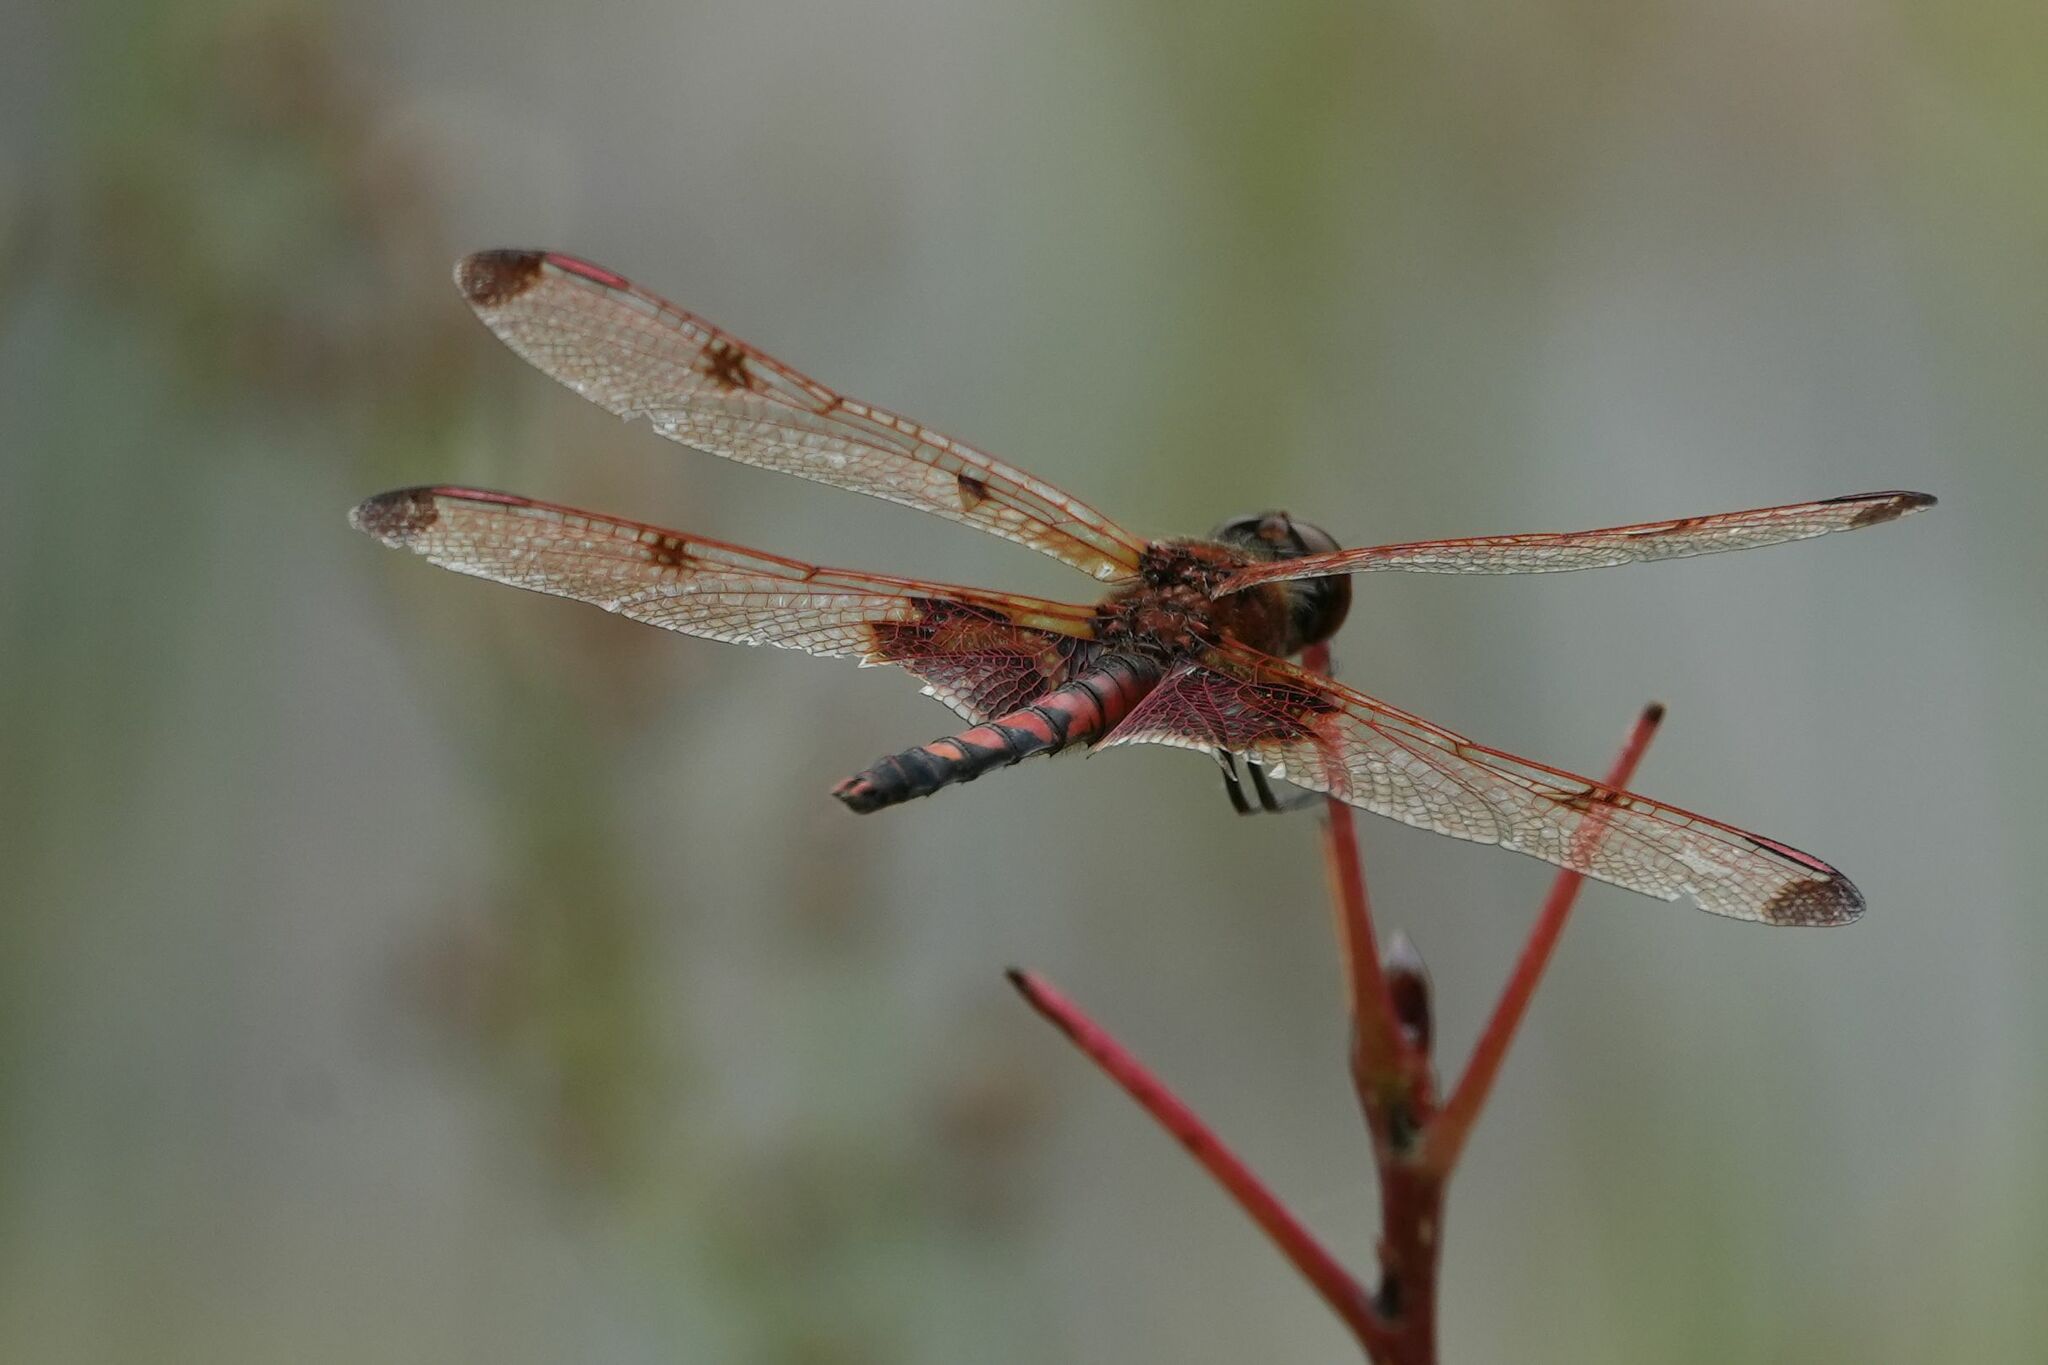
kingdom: Animalia
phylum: Arthropoda
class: Insecta
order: Odonata
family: Libellulidae
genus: Celithemis
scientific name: Celithemis elisa
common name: Calico pennant
